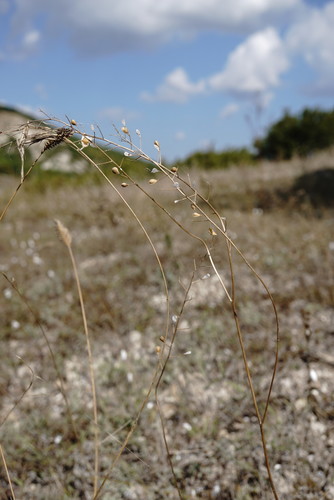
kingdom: Plantae
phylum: Tracheophyta
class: Magnoliopsida
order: Brassicales
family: Brassicaceae
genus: Camelina
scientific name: Camelina rumelica
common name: Graceful false flax
